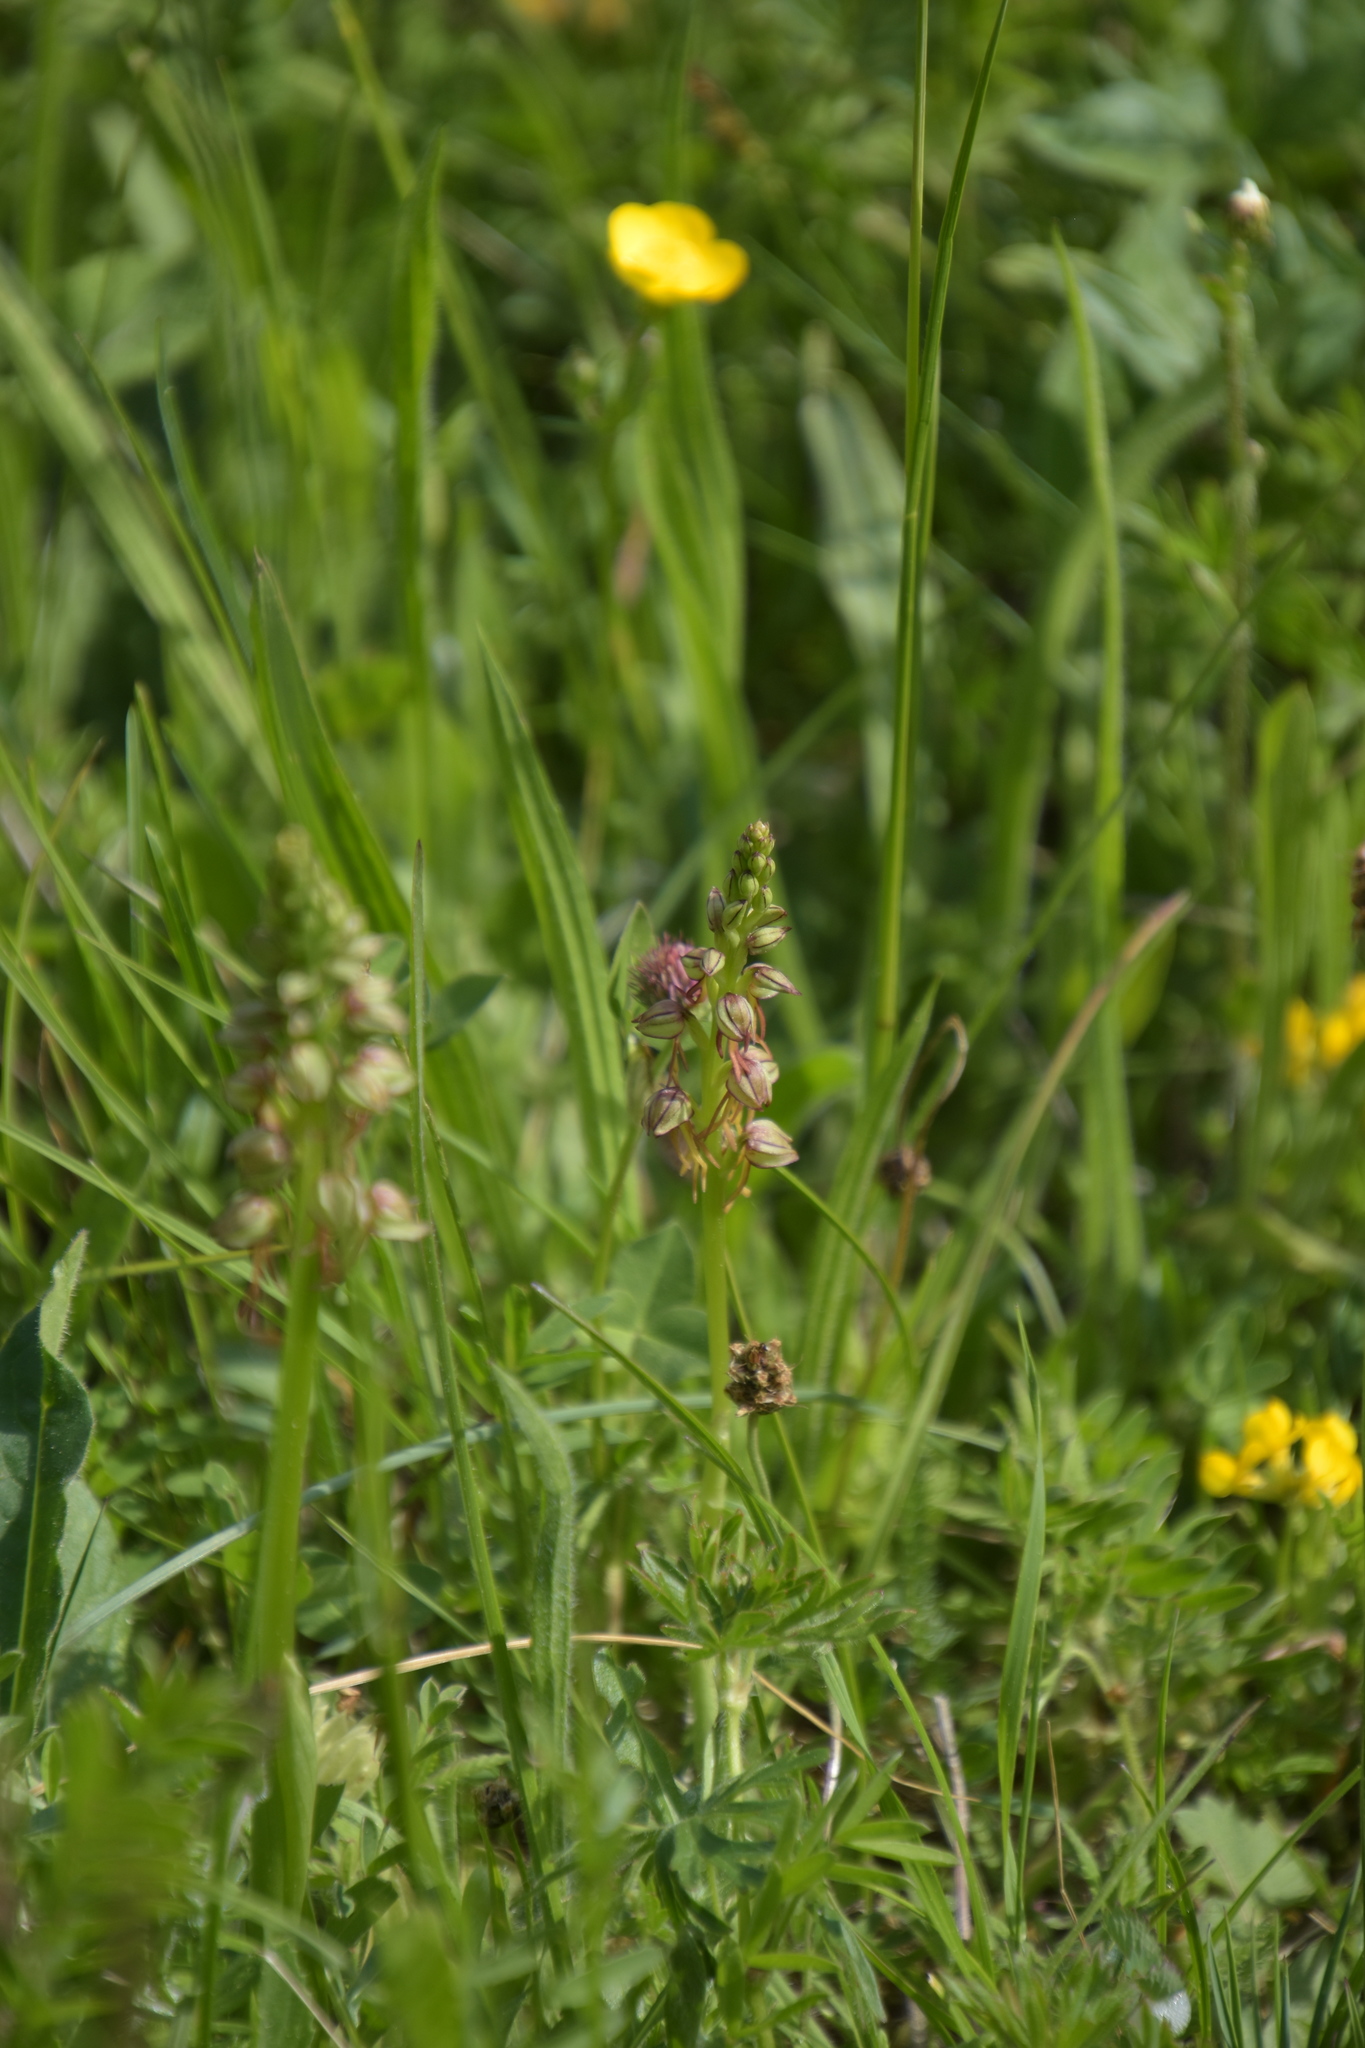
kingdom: Plantae
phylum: Tracheophyta
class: Liliopsida
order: Asparagales
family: Orchidaceae
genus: Orchis
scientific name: Orchis anthropophora
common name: Man orchid
